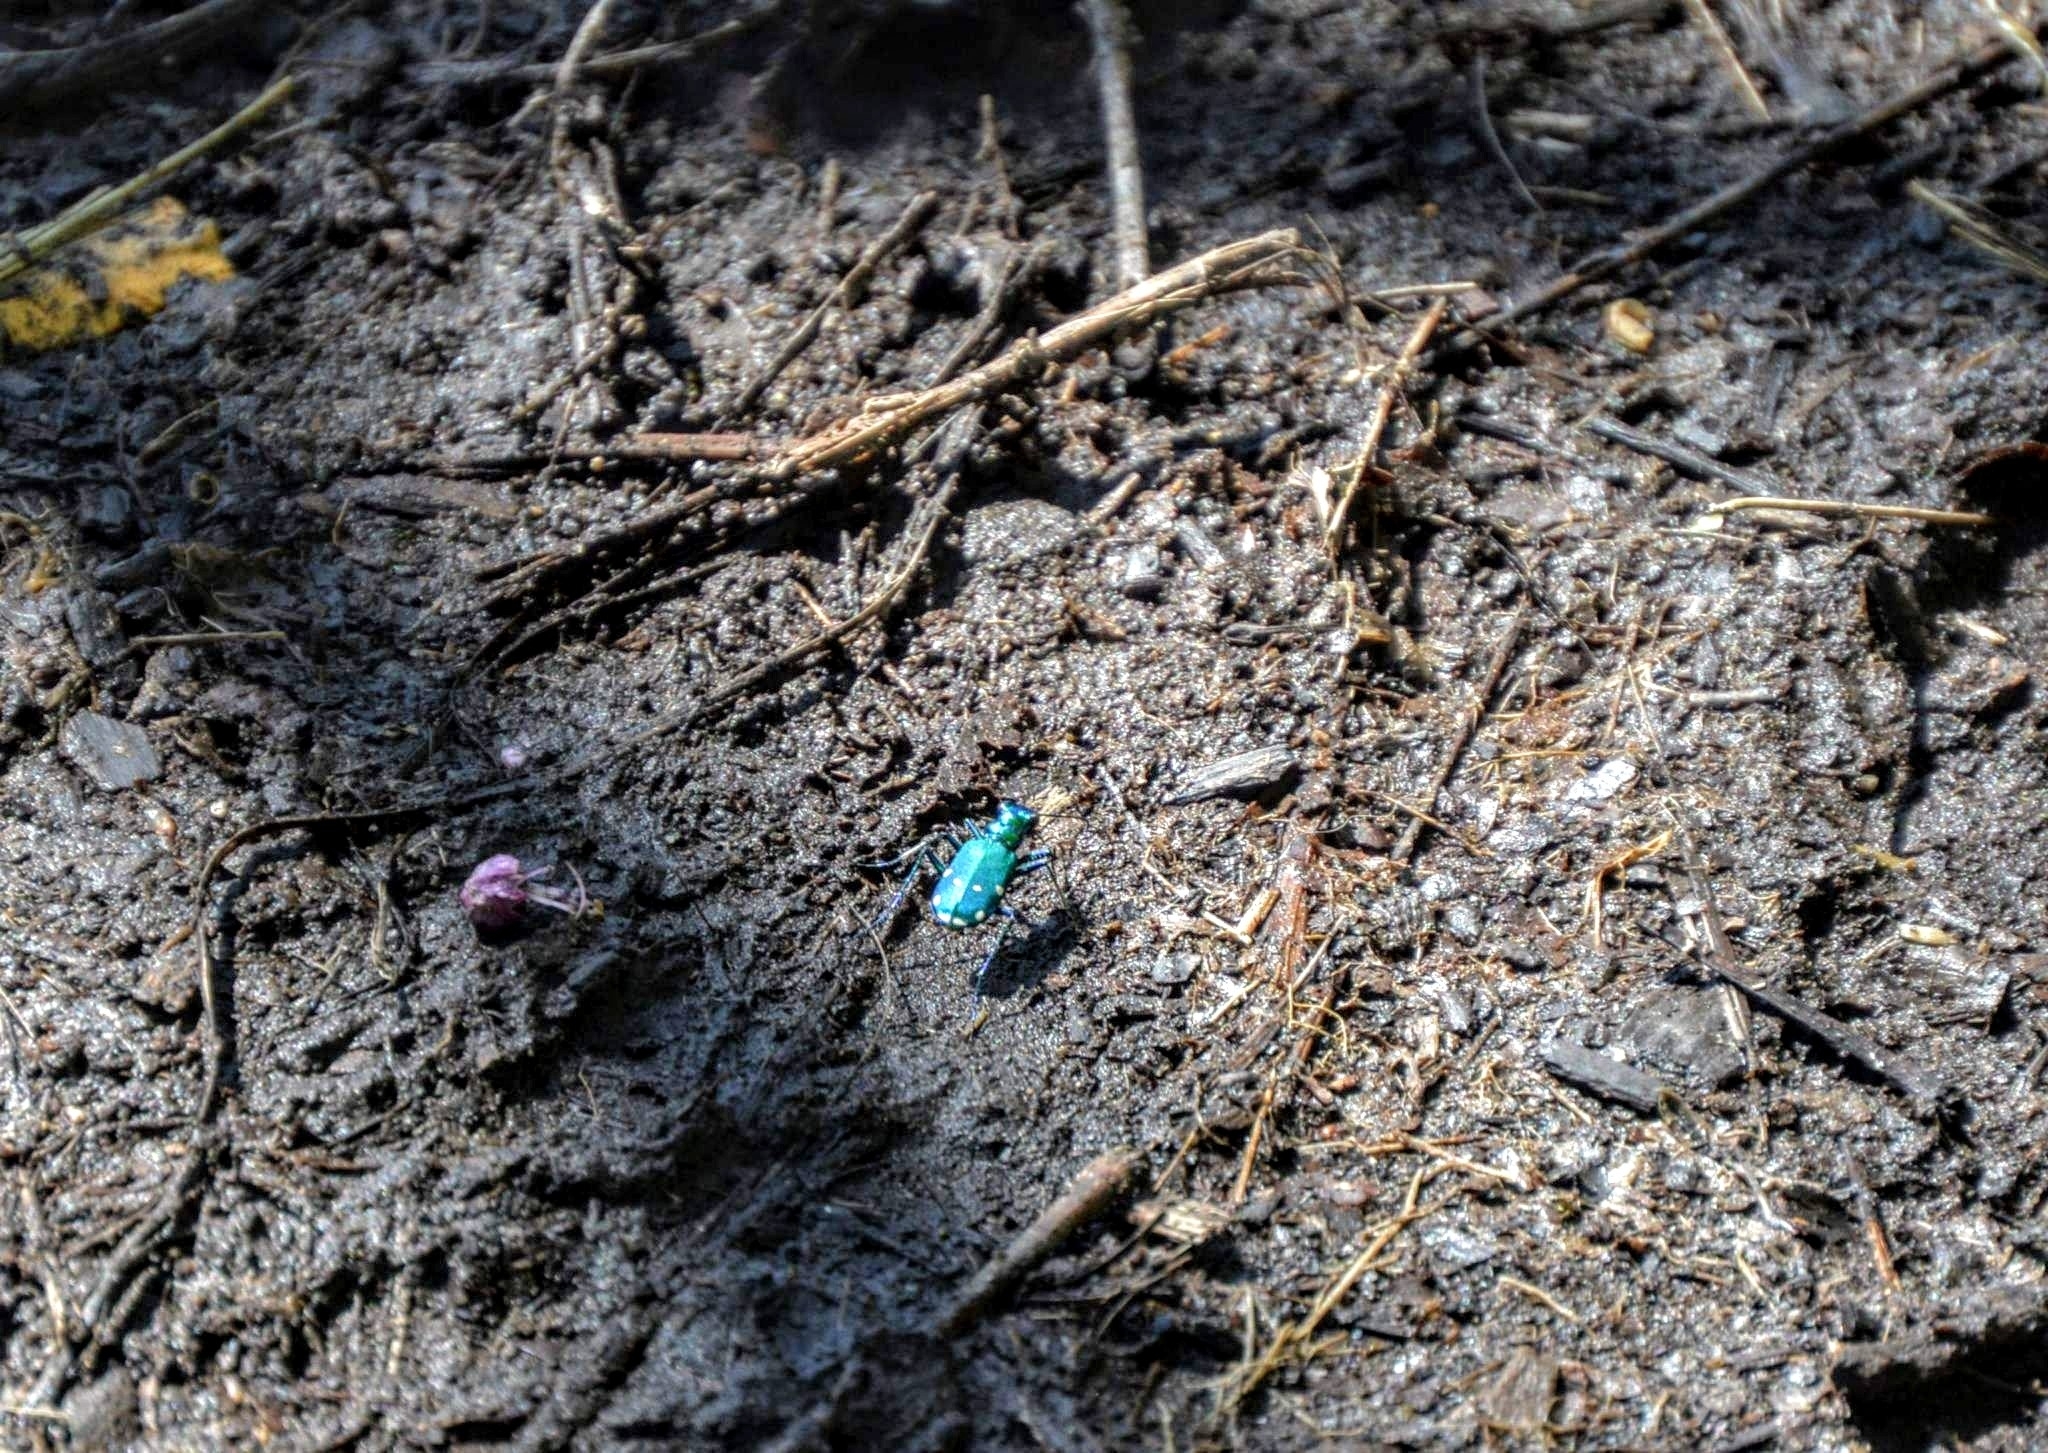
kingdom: Animalia
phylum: Arthropoda
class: Insecta
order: Coleoptera
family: Carabidae
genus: Cicindela
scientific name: Cicindela sexguttata
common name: Six-spotted tiger beetle
